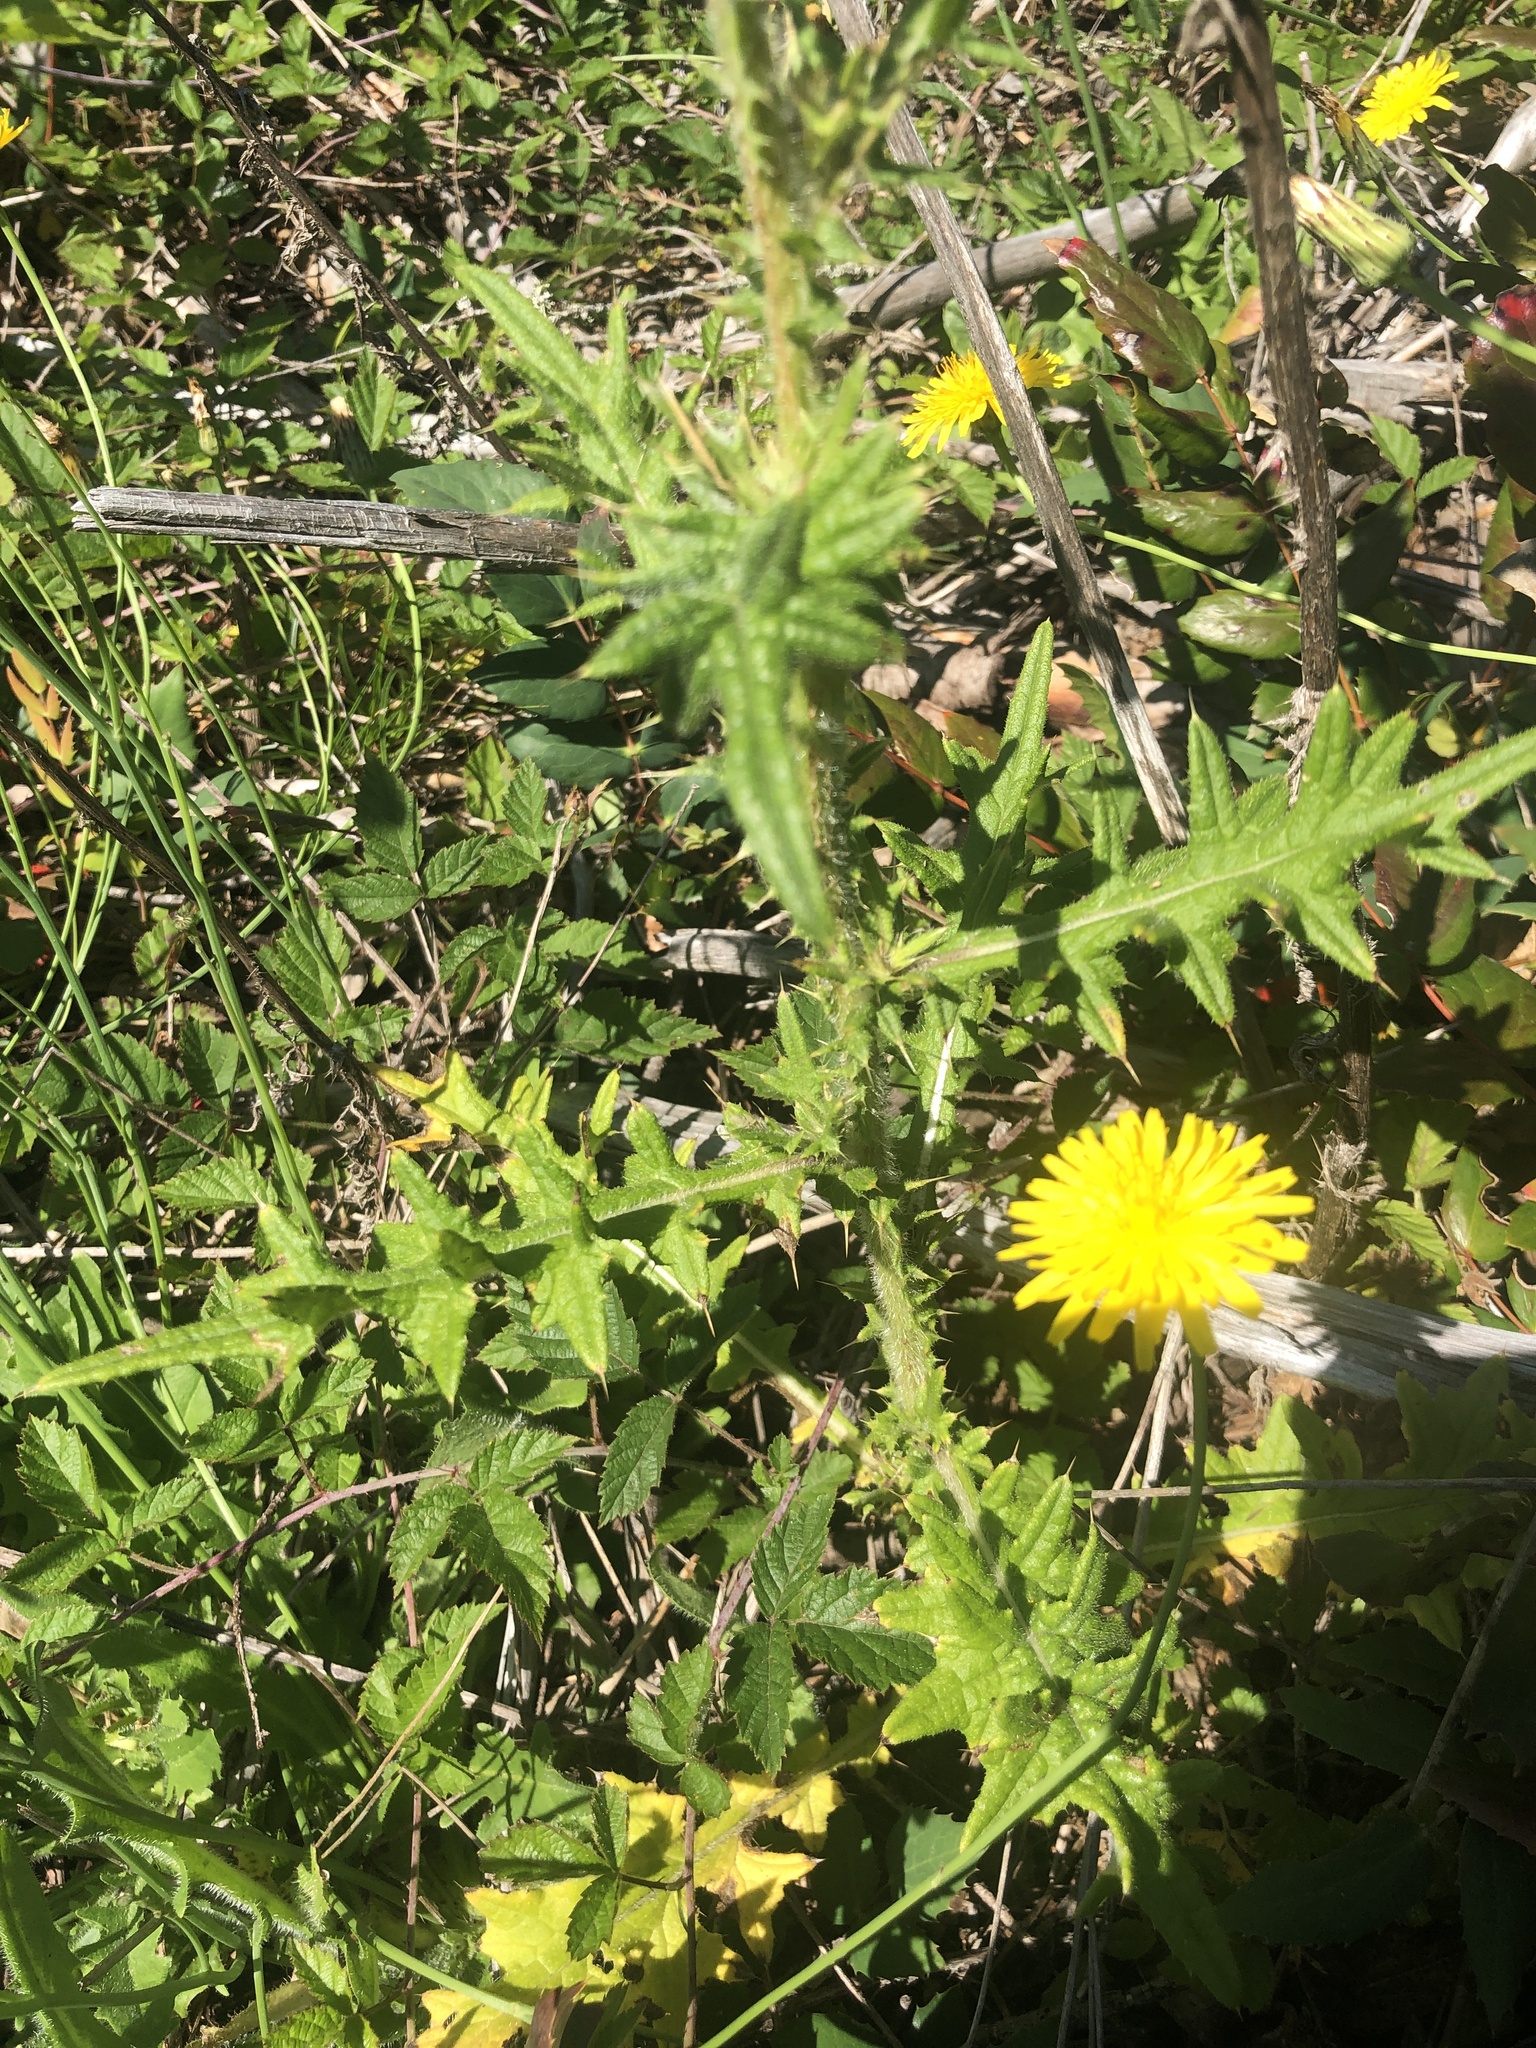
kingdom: Plantae
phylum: Tracheophyta
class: Magnoliopsida
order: Asterales
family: Asteraceae
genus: Cirsium
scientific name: Cirsium vulgare
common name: Bull thistle
